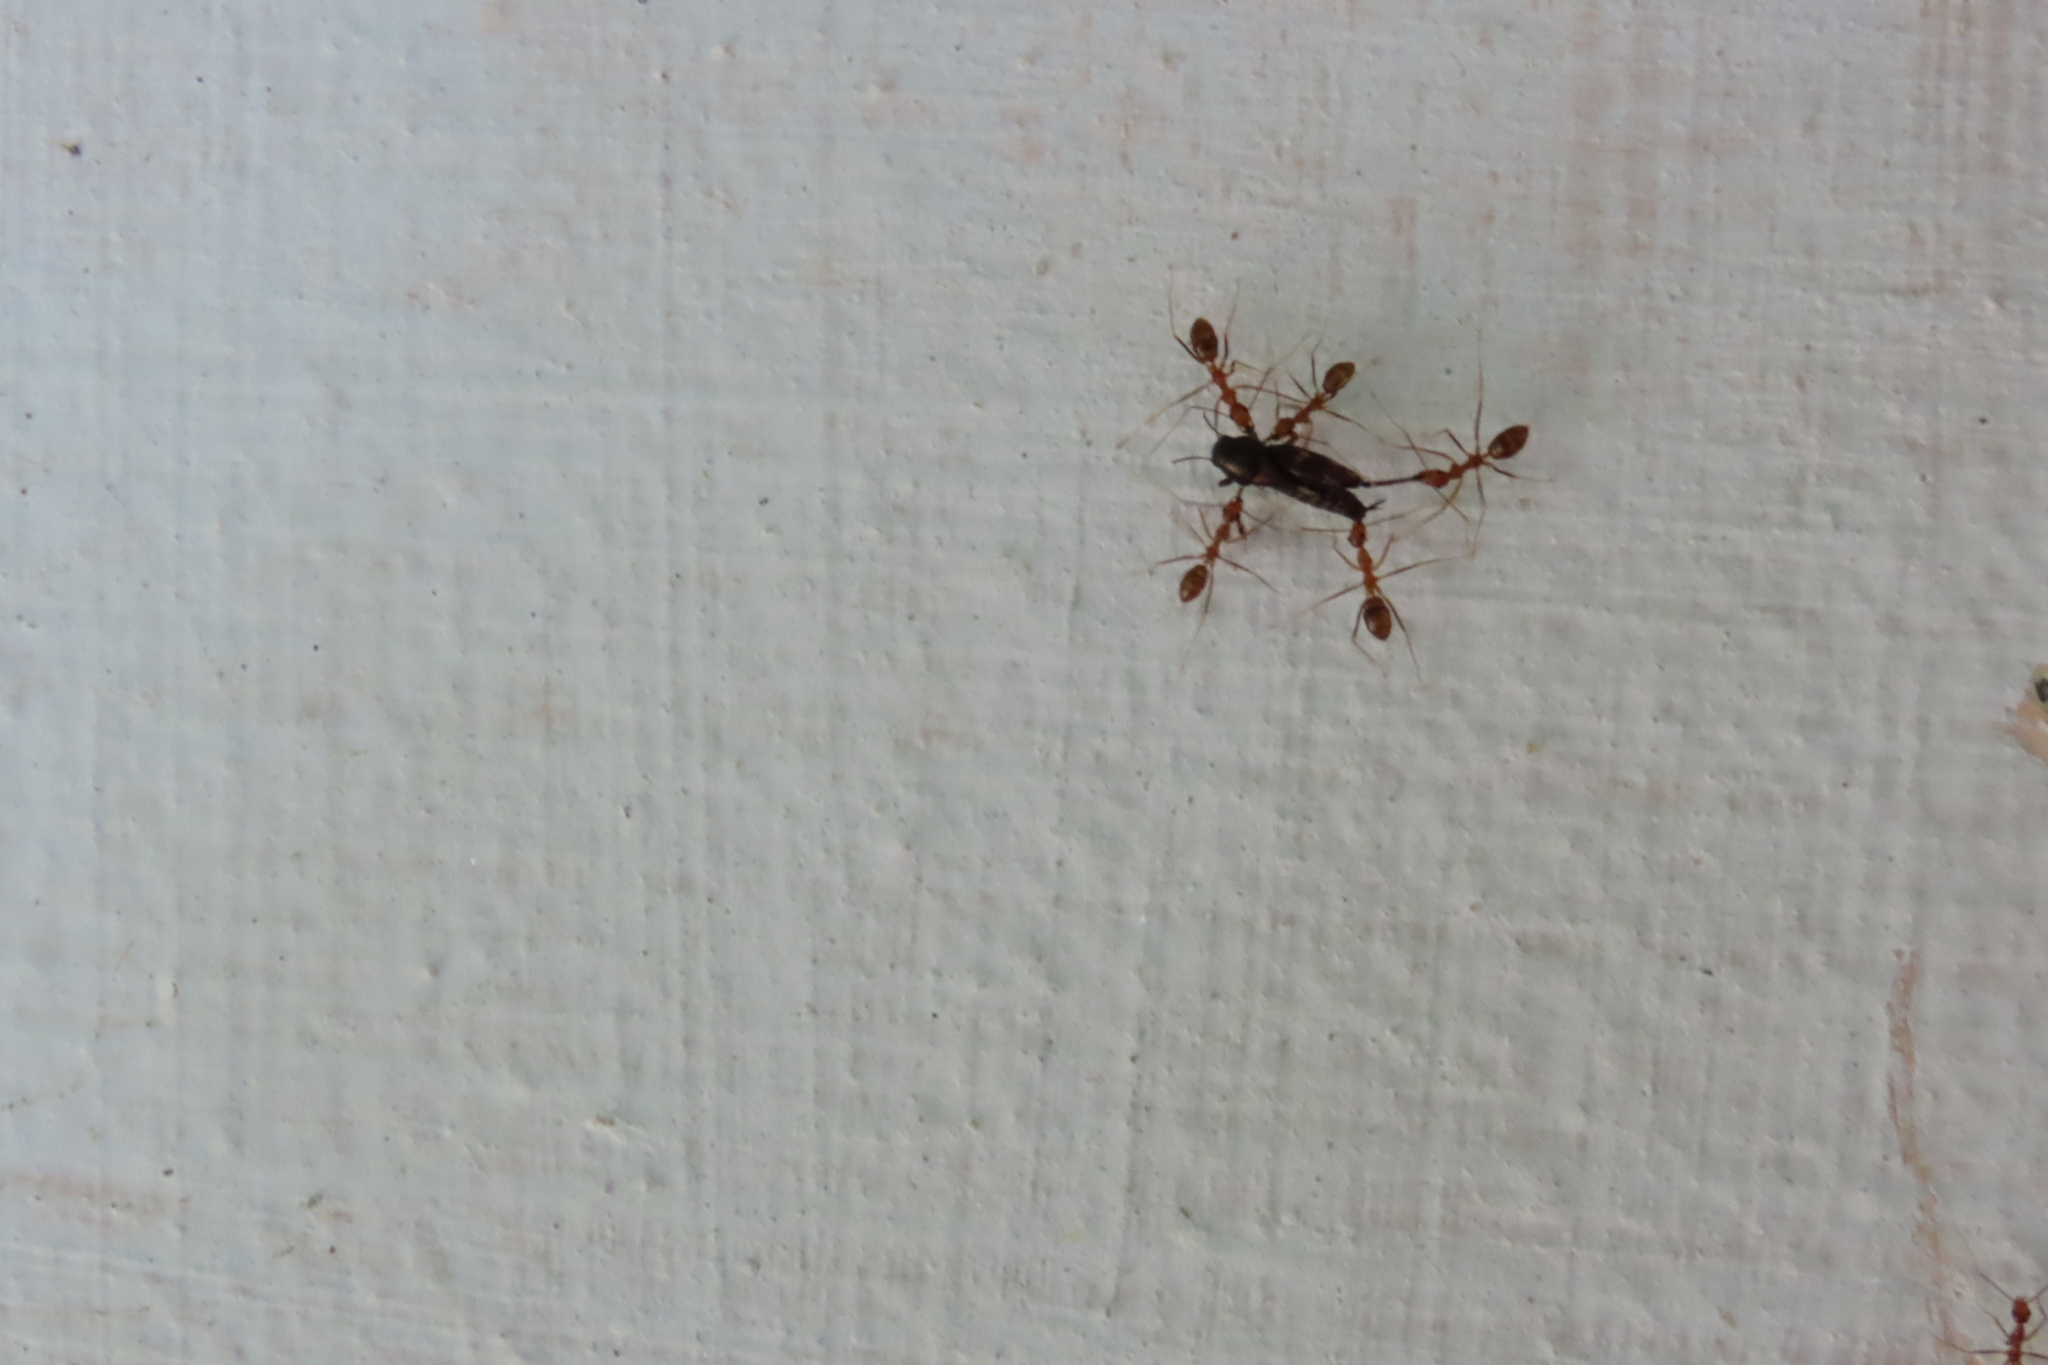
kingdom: Animalia
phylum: Arthropoda
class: Insecta
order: Hymenoptera
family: Formicidae
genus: Anoplolepis
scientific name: Anoplolepis gracilipes
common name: Ant
